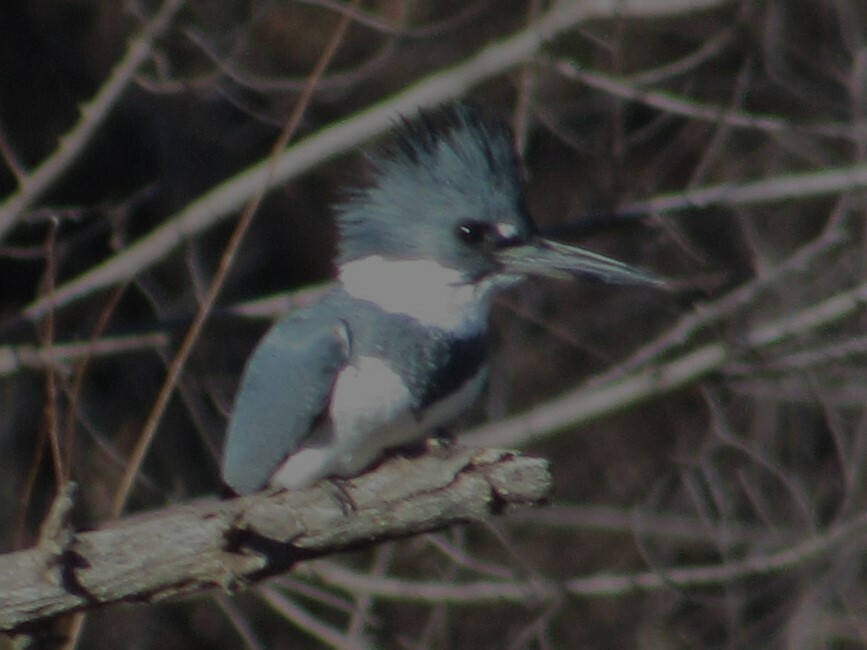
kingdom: Animalia
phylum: Chordata
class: Aves
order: Coraciiformes
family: Alcedinidae
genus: Megaceryle
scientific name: Megaceryle alcyon
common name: Belted kingfisher
